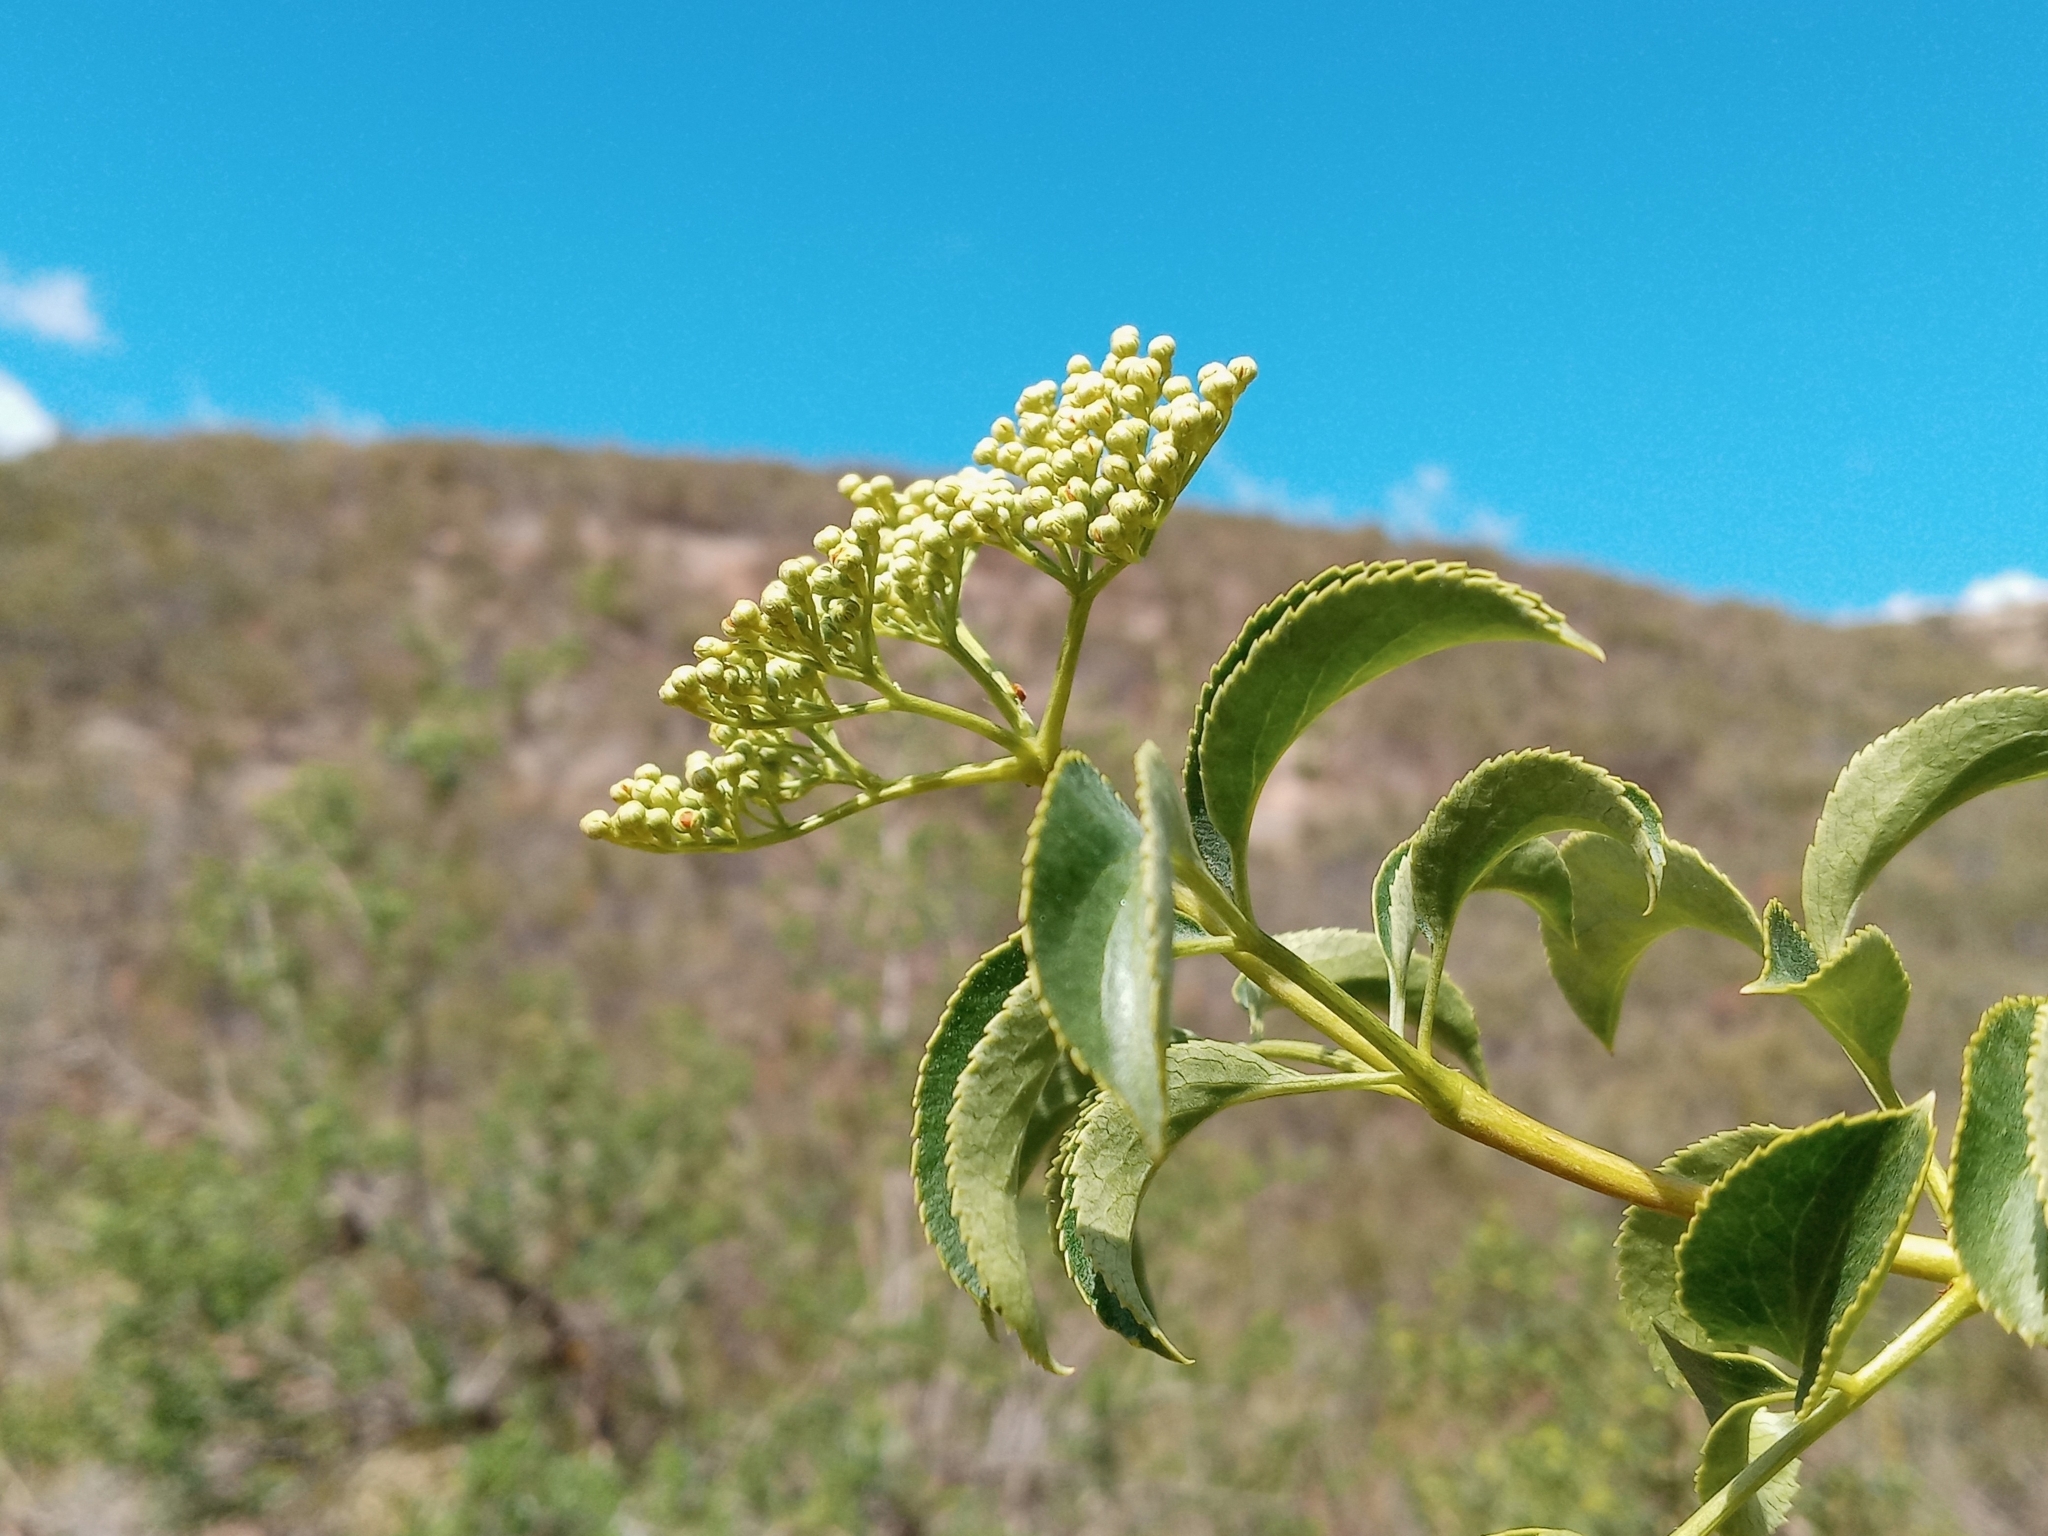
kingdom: Plantae
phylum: Tracheophyta
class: Magnoliopsida
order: Dipsacales
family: Viburnaceae
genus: Sambucus
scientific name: Sambucus cerulea
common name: Blue elder
